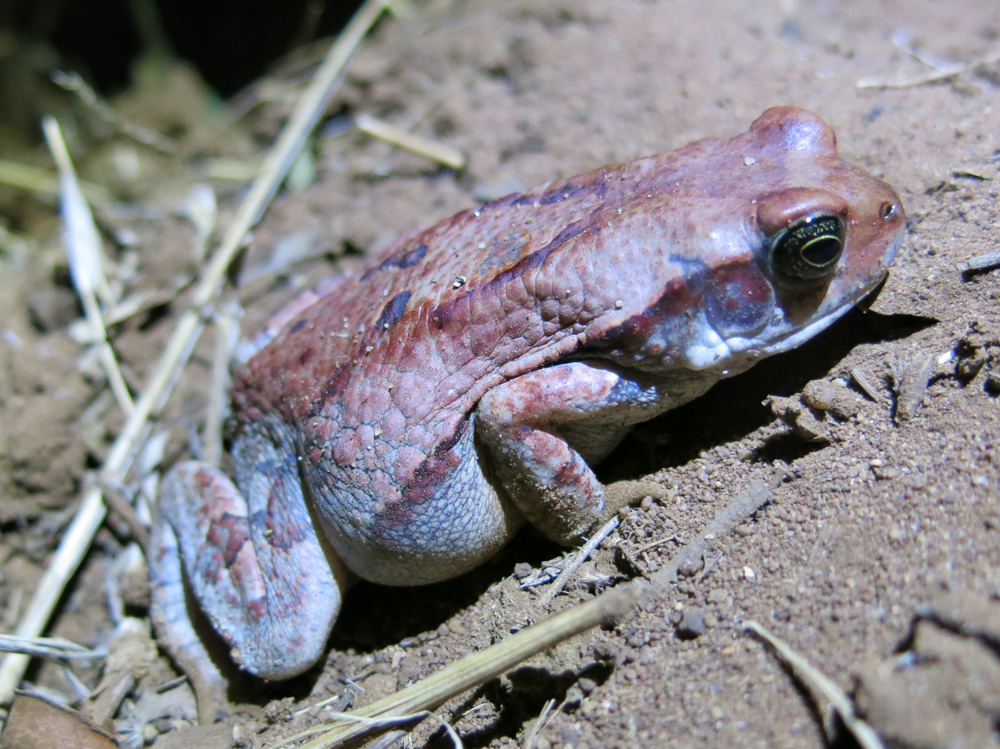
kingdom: Animalia
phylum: Chordata
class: Amphibia
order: Anura
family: Bufonidae
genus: Schismaderma
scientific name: Schismaderma carens
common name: African split-skin toad
